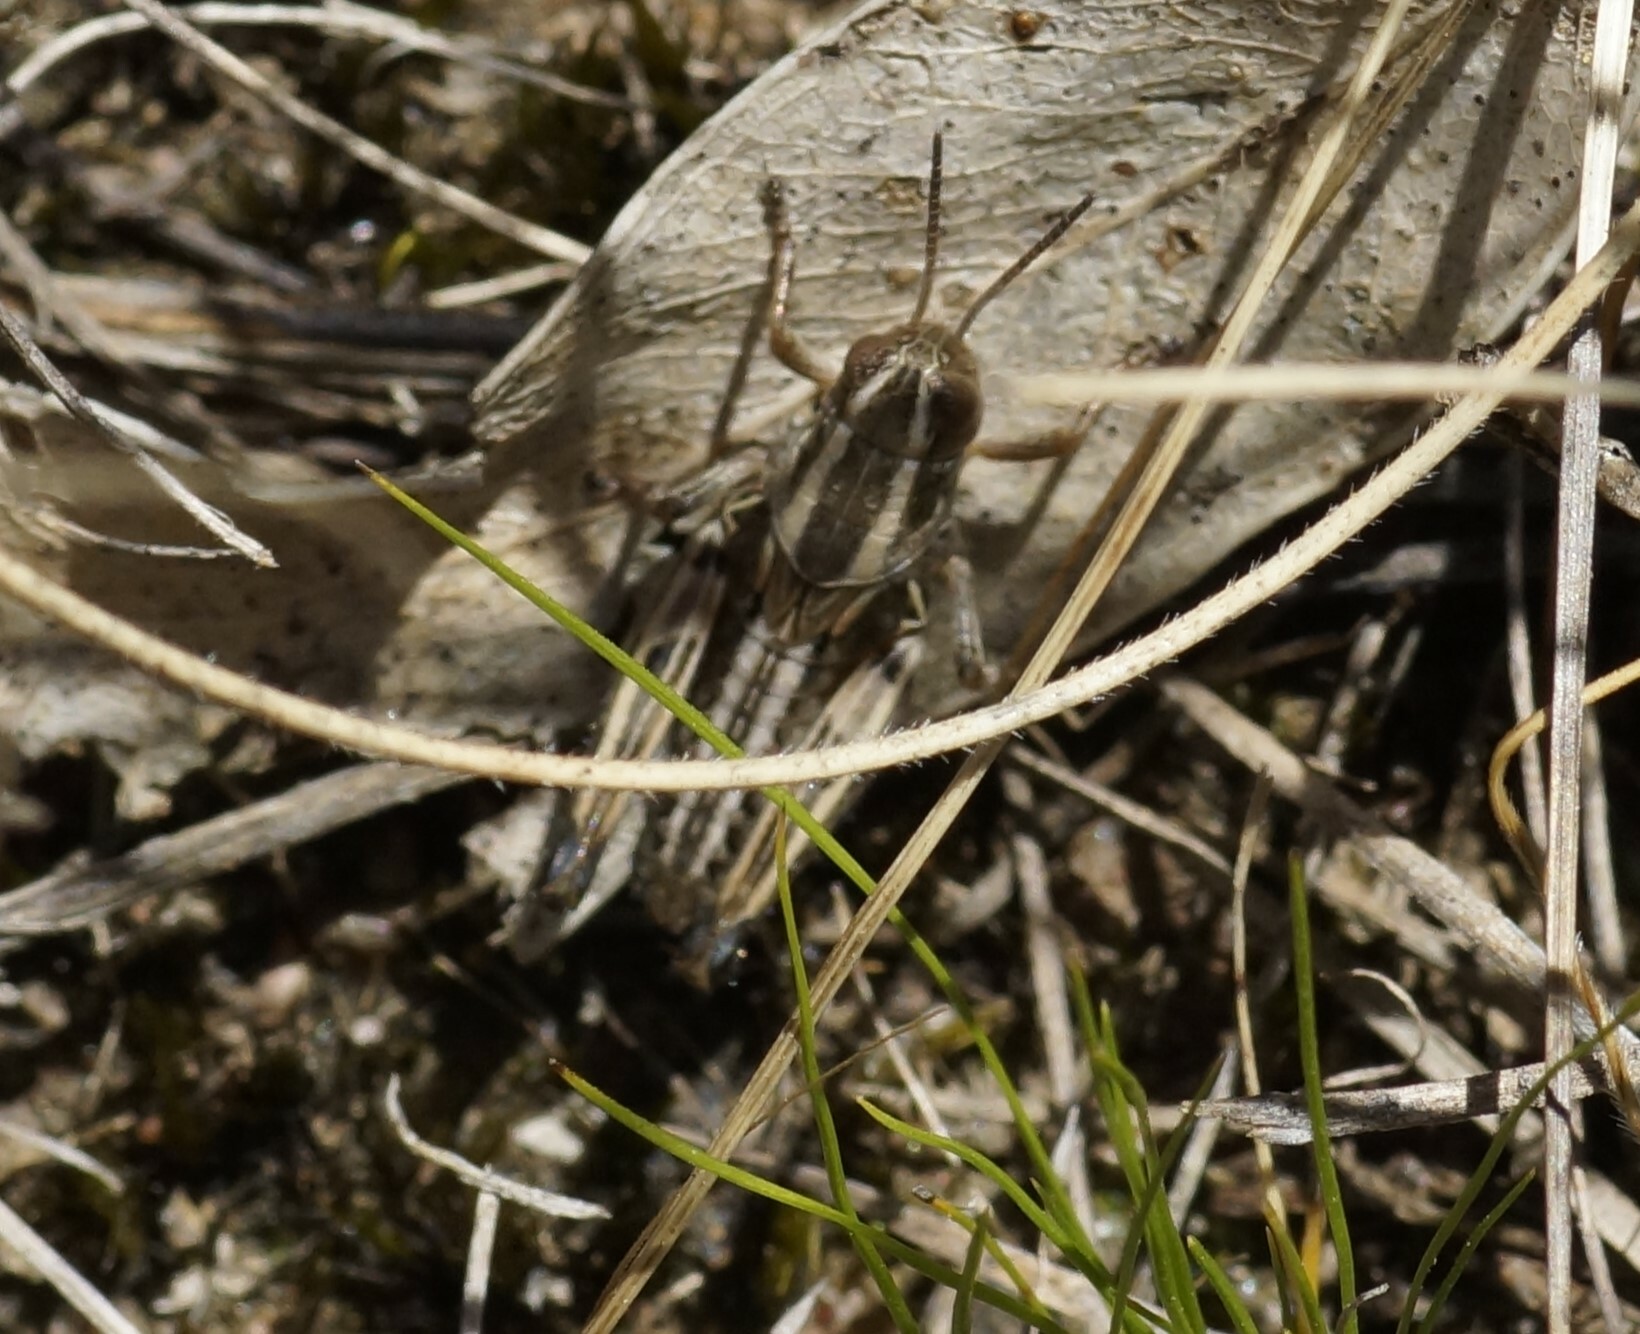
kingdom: Animalia
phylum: Arthropoda
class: Insecta
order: Orthoptera
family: Acrididae
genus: Brachyexarna
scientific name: Brachyexarna lobipennis
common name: Stripe-winged meadow grasshopper
